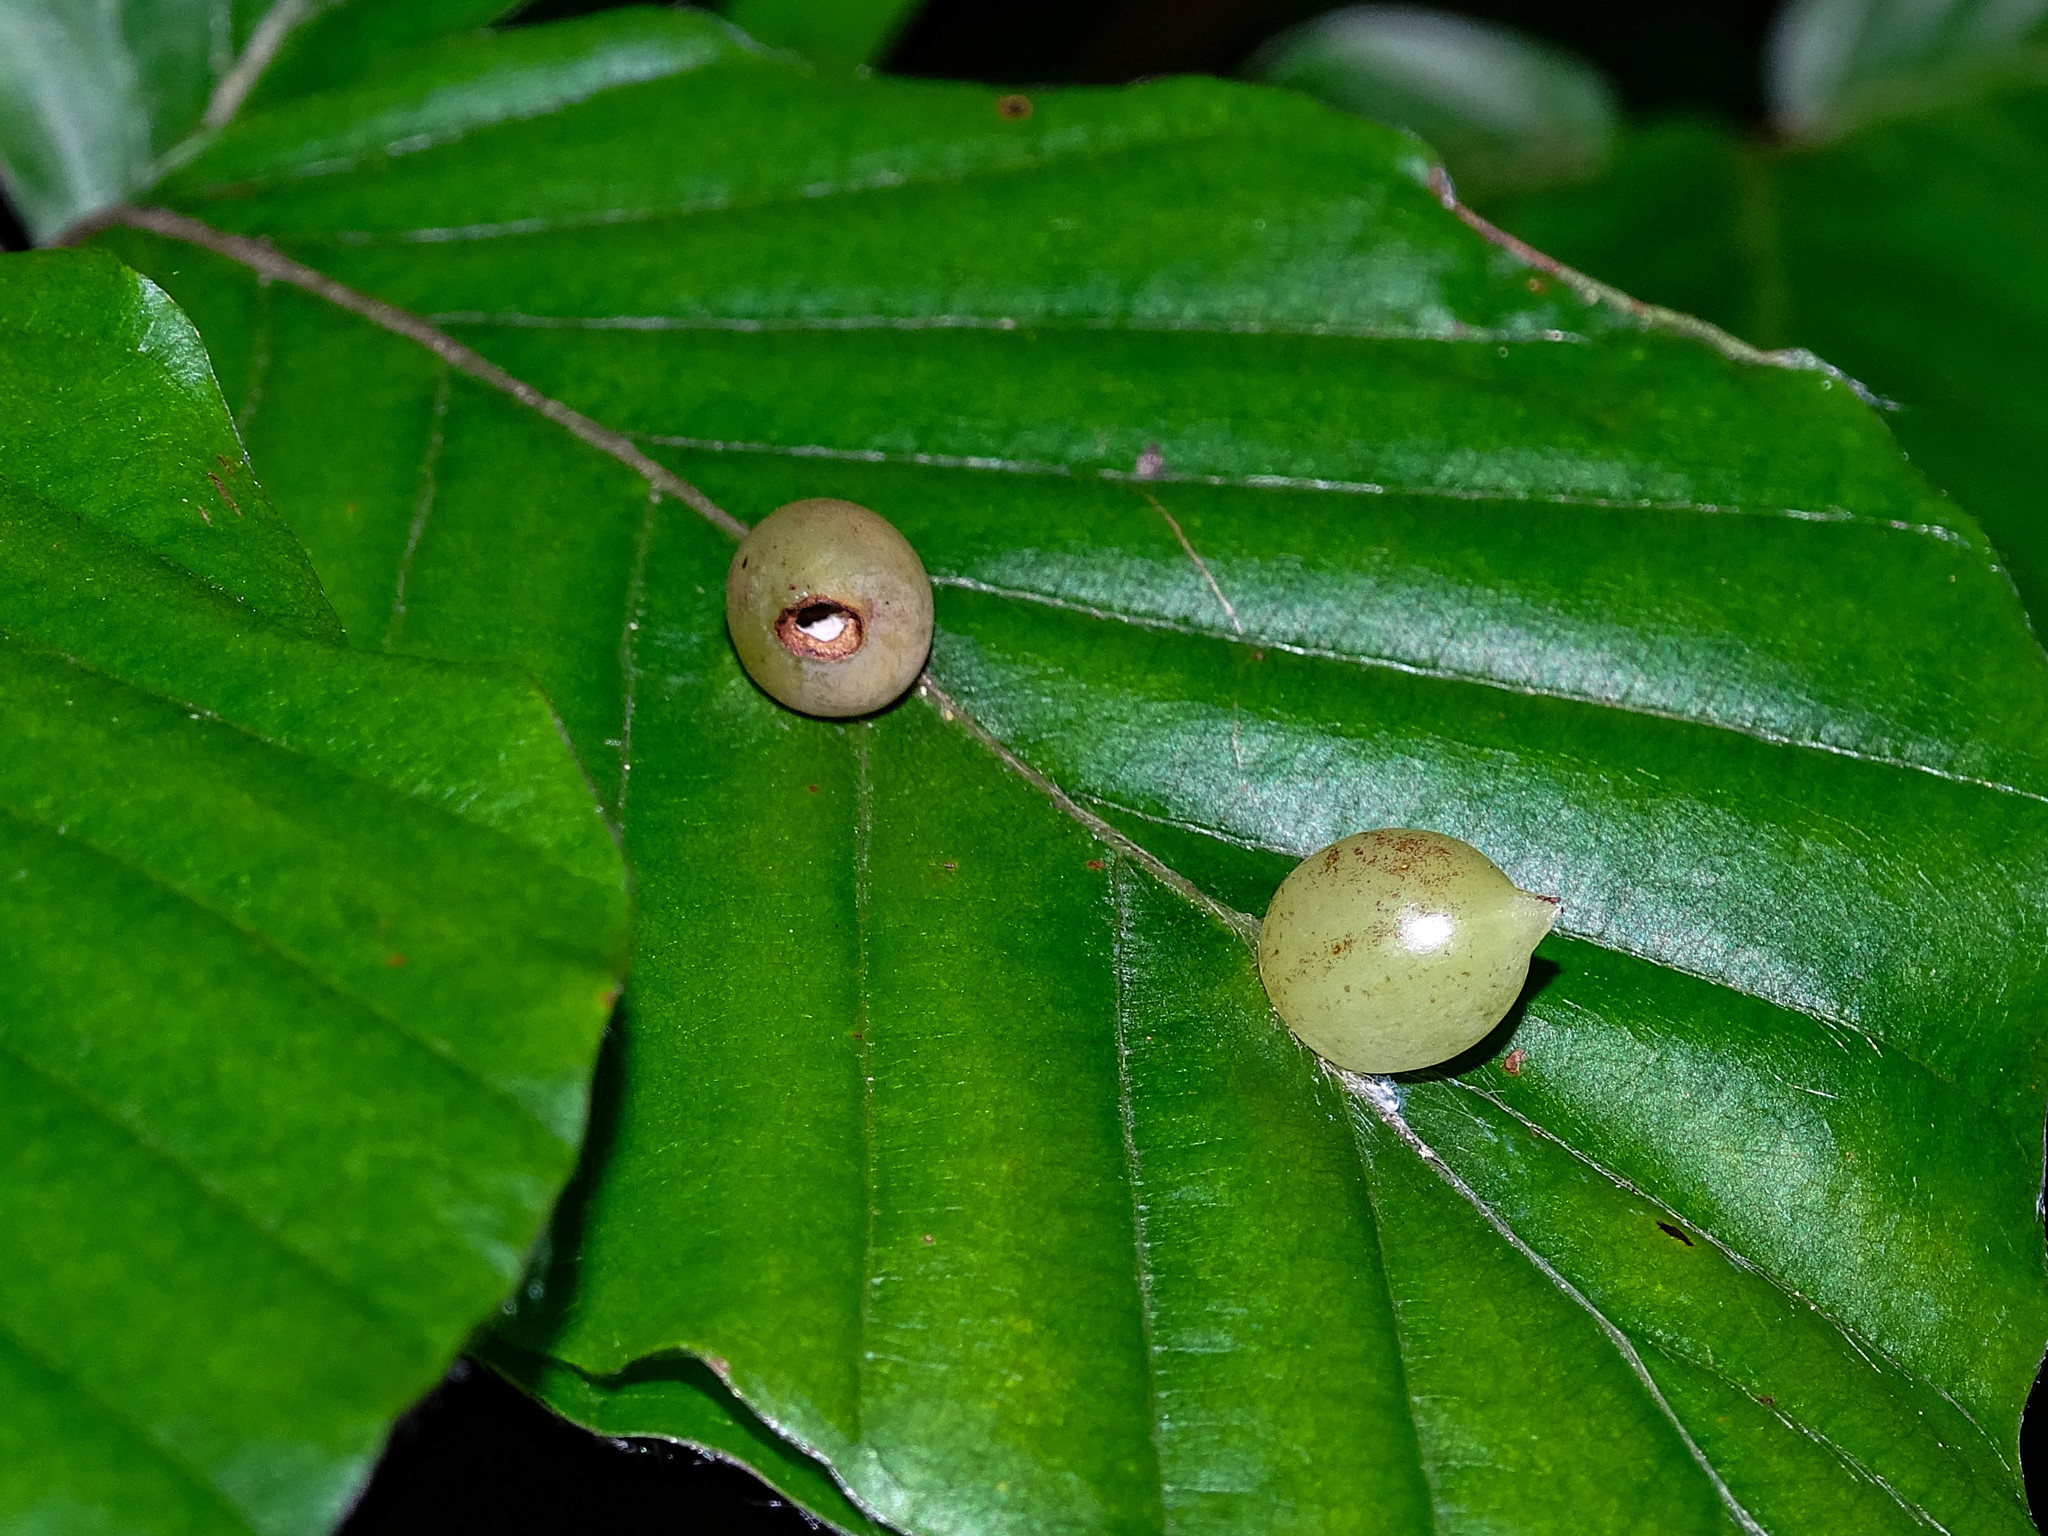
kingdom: Animalia
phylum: Arthropoda
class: Insecta
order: Diptera
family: Cecidomyiidae
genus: Mikiola
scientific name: Mikiola fagi
